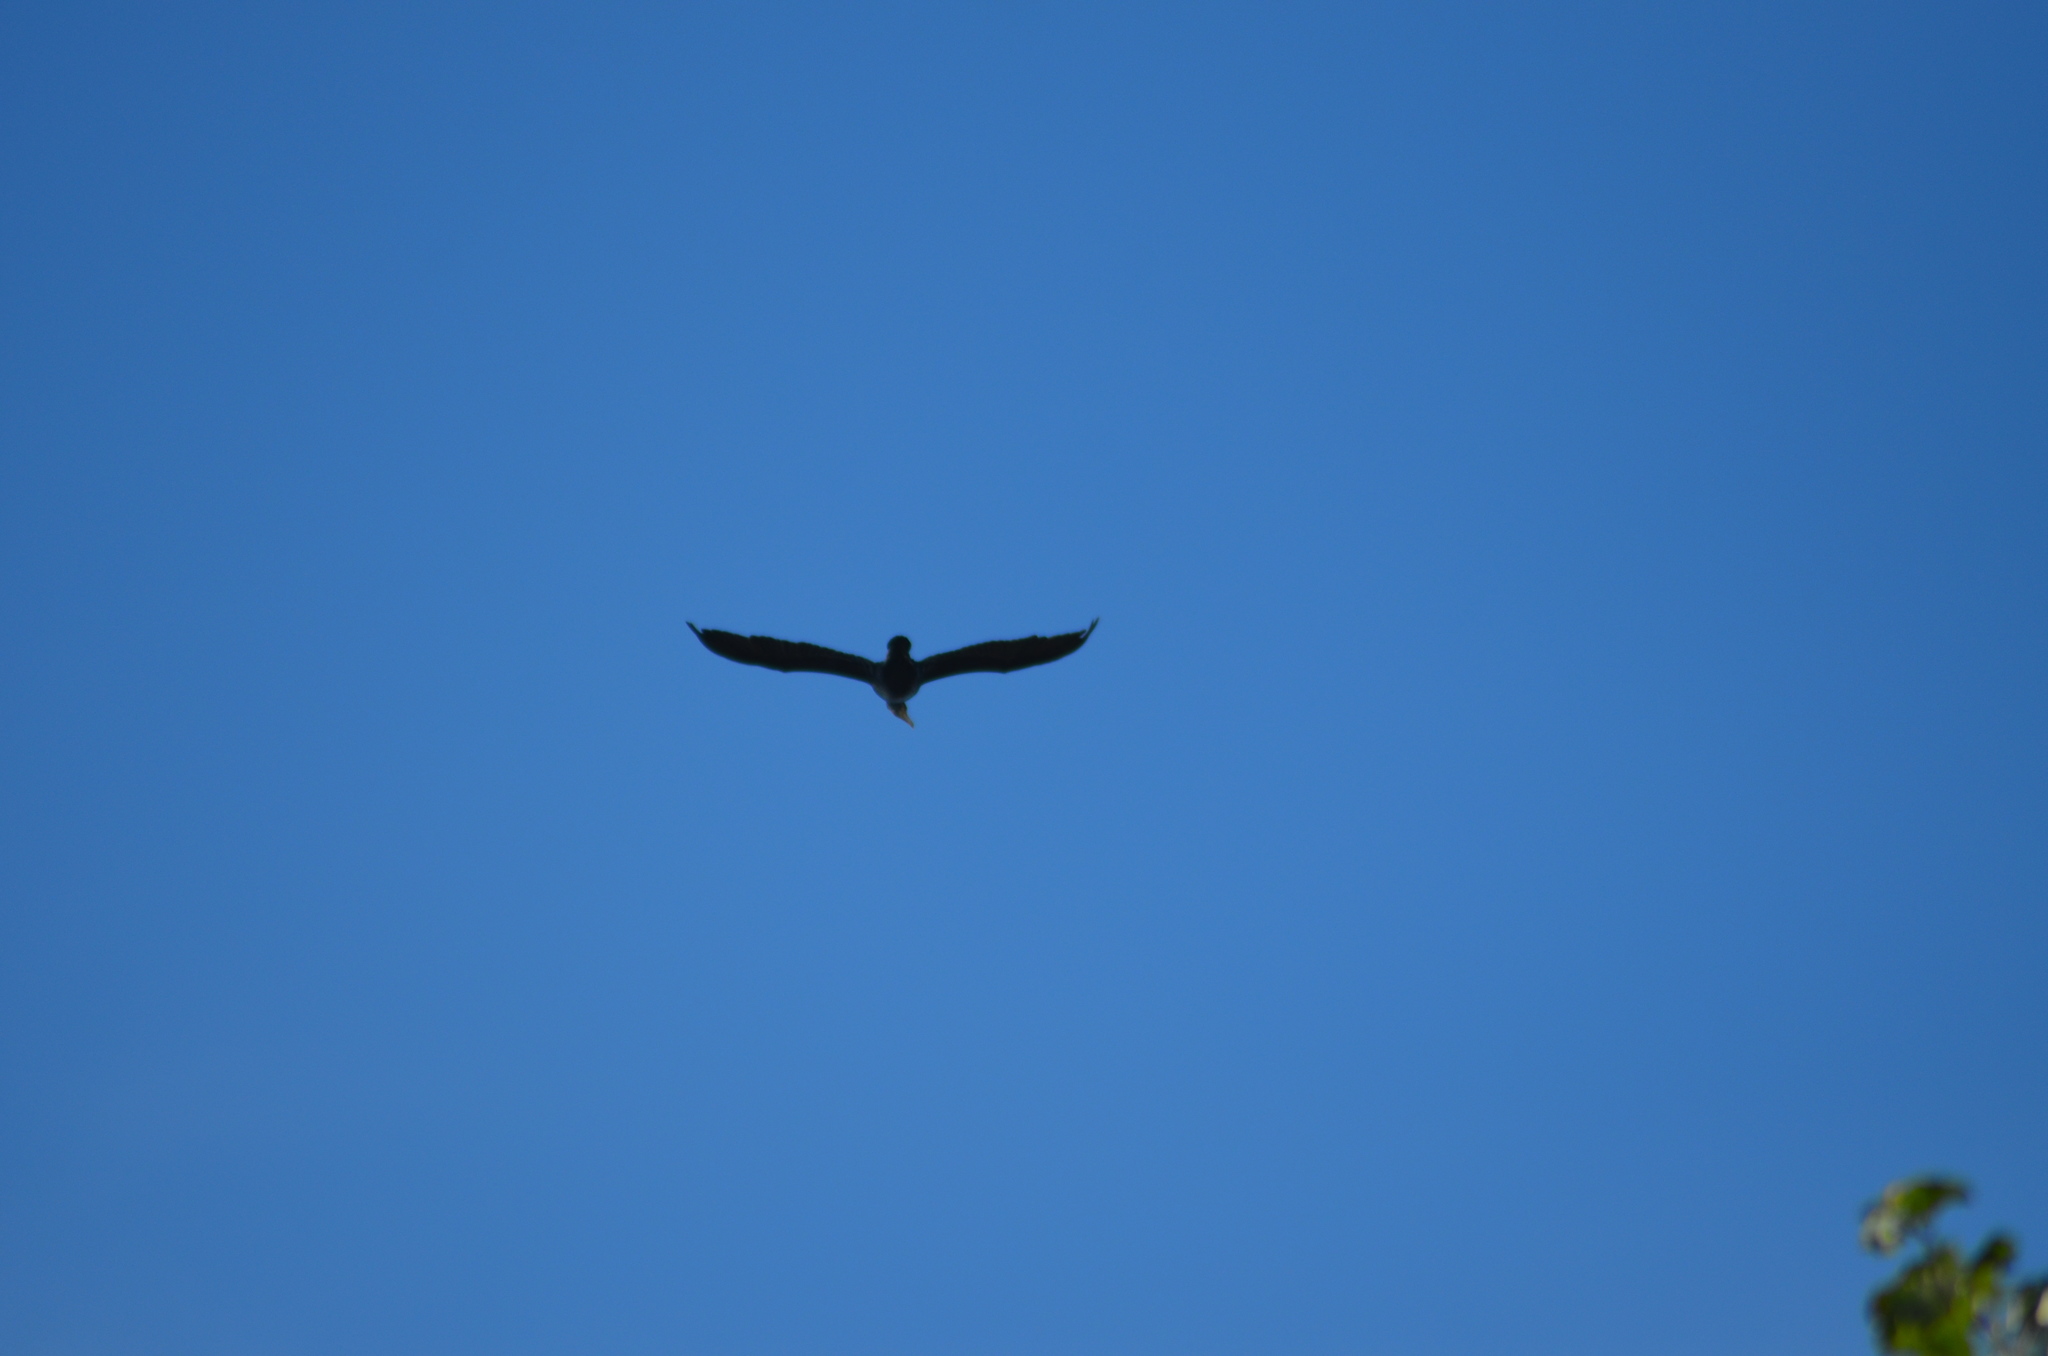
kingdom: Animalia
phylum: Chordata
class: Aves
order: Suliformes
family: Phalacrocoracidae
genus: Phalacrocorax
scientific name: Phalacrocorax carbo
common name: Great cormorant
